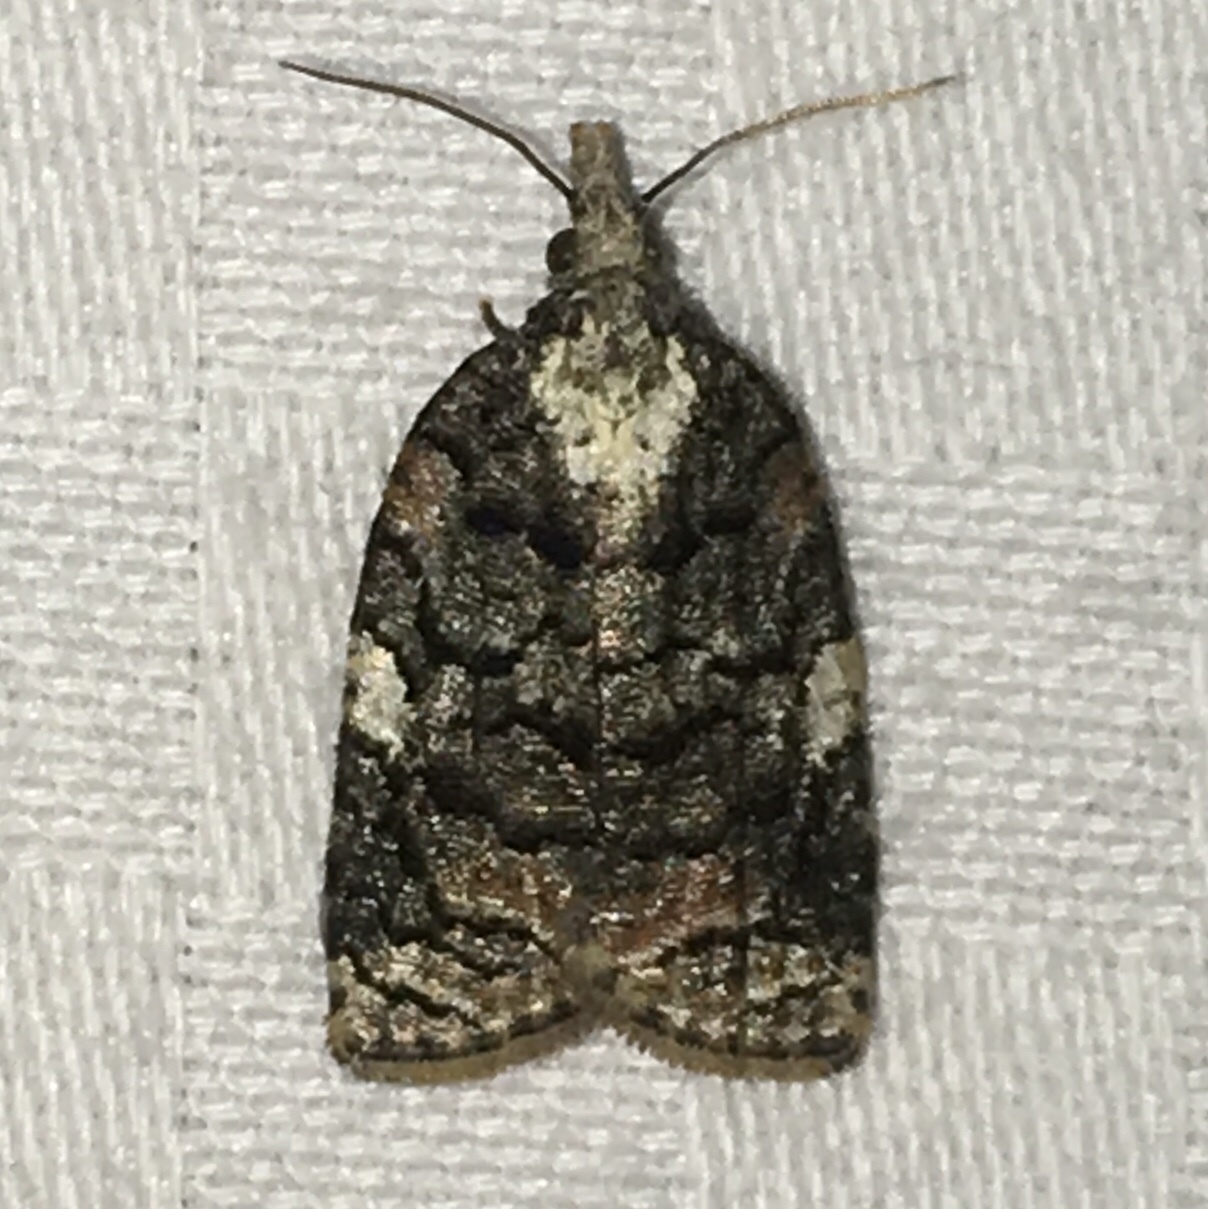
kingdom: Animalia
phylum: Arthropoda
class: Insecta
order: Lepidoptera
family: Tortricidae
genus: Platynota
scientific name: Platynota exasperatana
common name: Exasperating platynota moth
